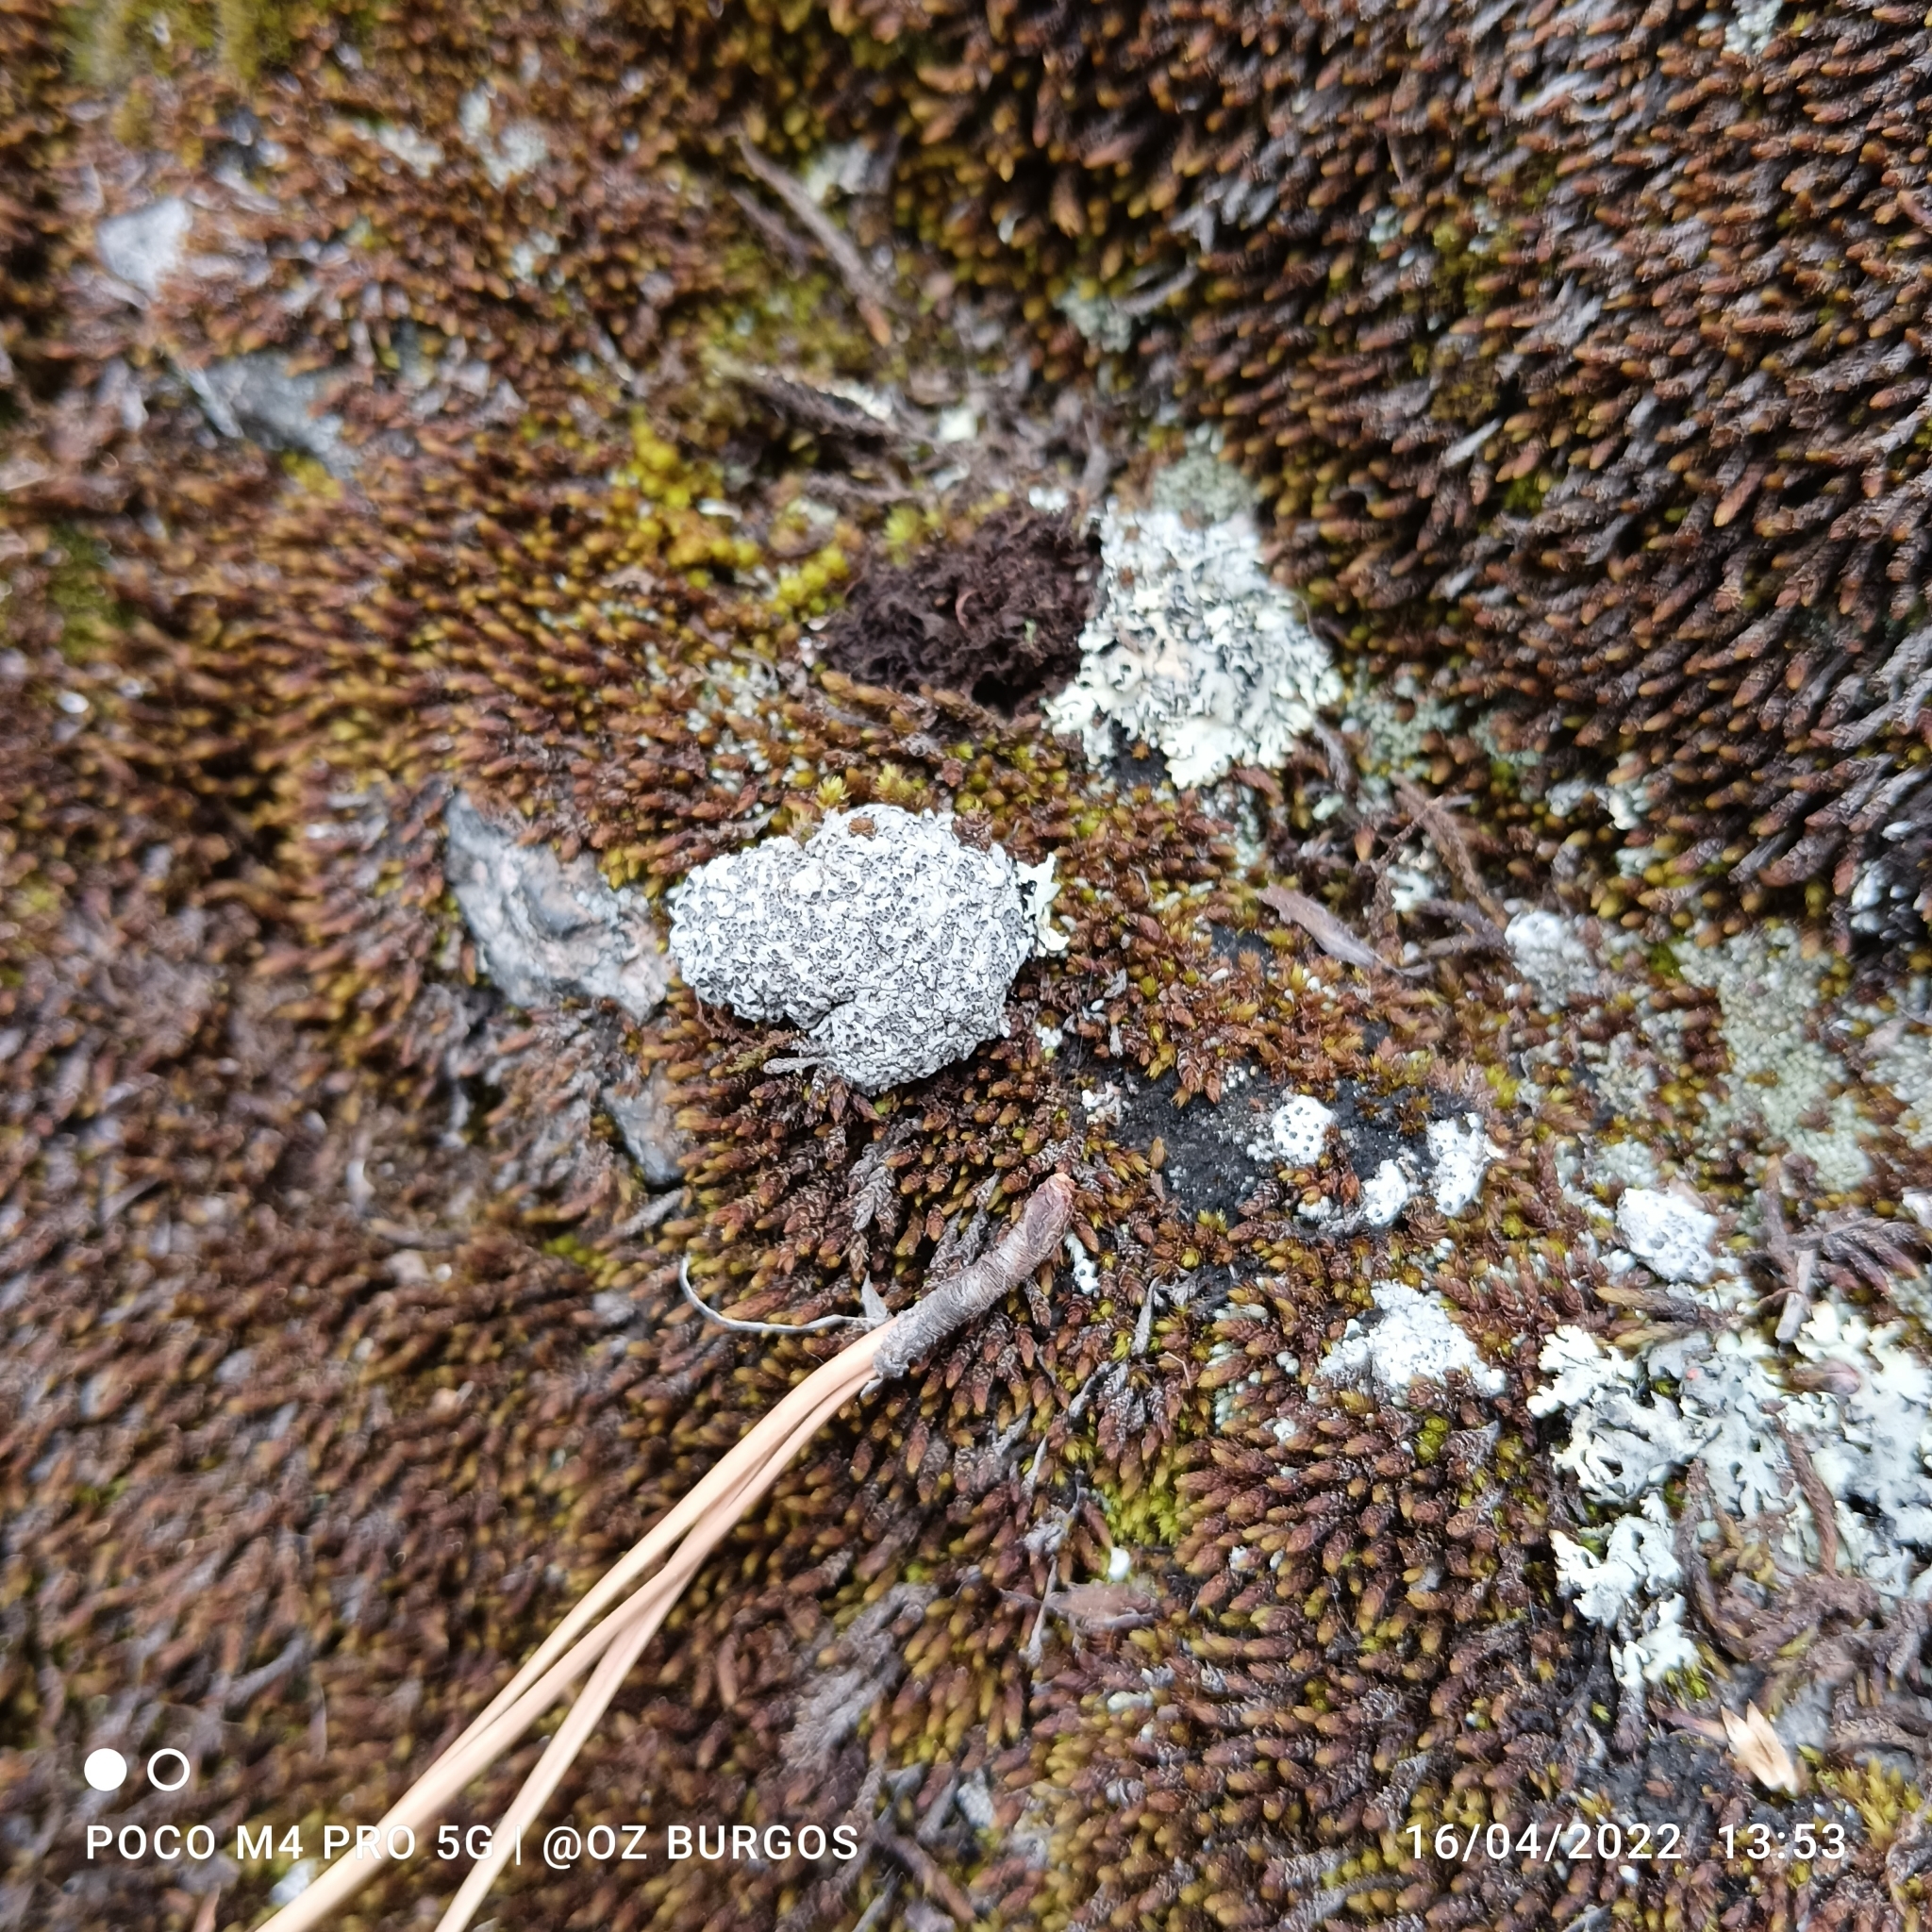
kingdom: Fungi
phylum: Ascomycota
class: Lecanoromycetes
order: Ostropales
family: Graphidaceae
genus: Diploschistes
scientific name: Diploschistes muscorum
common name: Cowpie lichen
